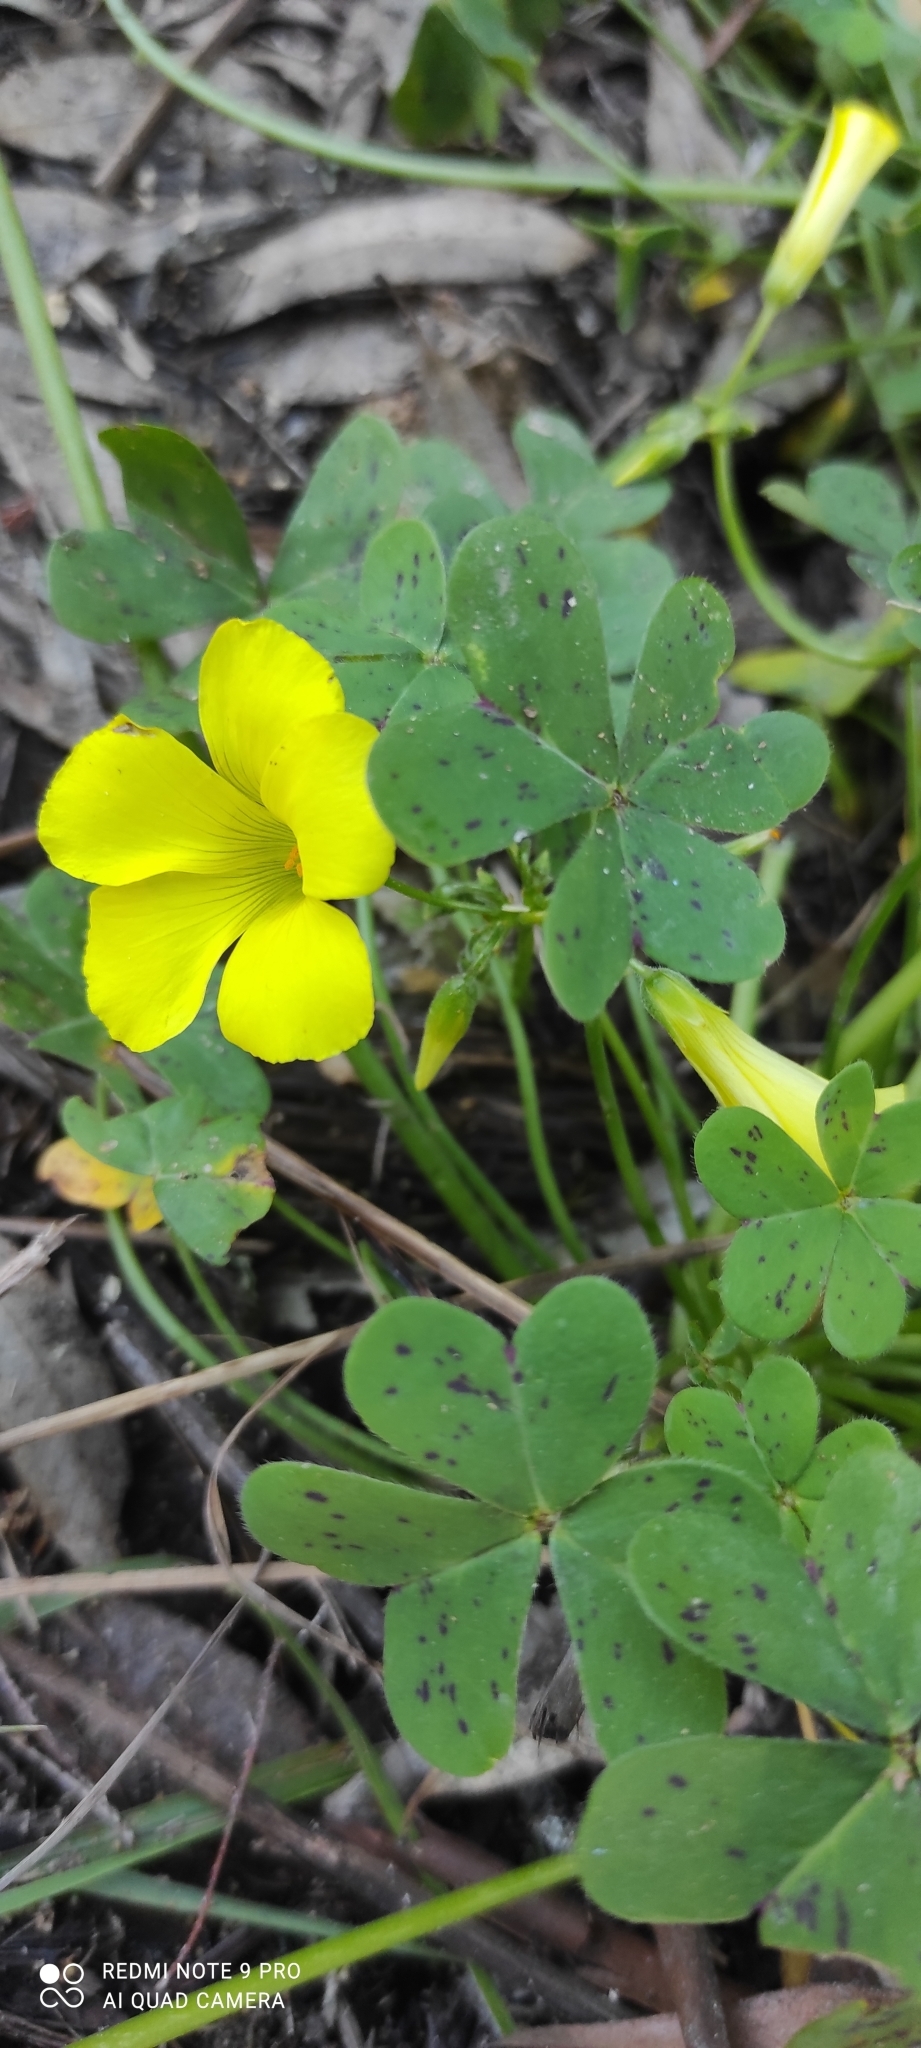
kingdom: Plantae
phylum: Tracheophyta
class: Magnoliopsida
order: Oxalidales
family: Oxalidaceae
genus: Oxalis
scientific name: Oxalis pes-caprae
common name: Bermuda-buttercup
